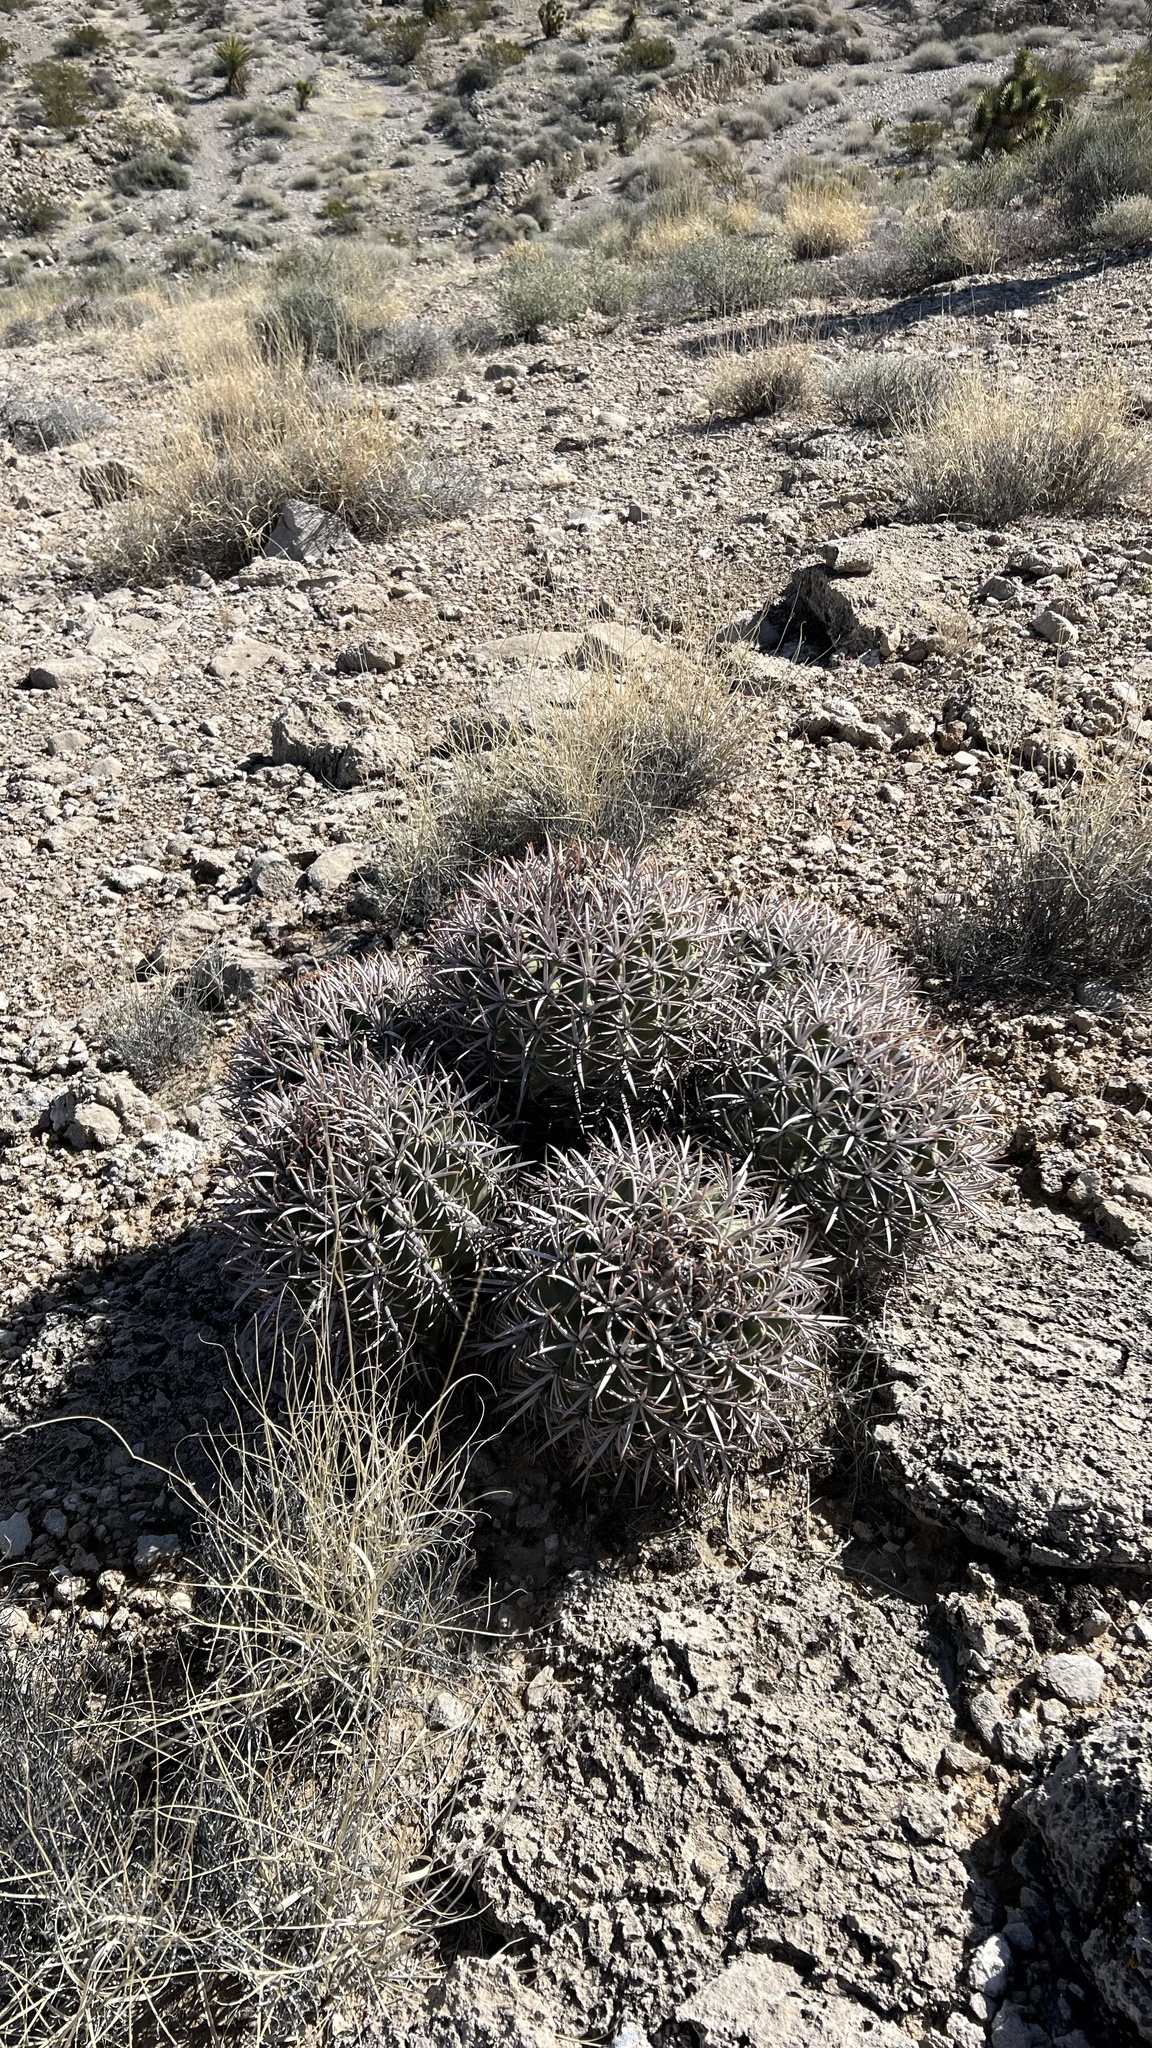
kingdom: Plantae
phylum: Tracheophyta
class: Magnoliopsida
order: Caryophyllales
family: Cactaceae
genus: Echinocactus
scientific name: Echinocactus polycephalus
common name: Cottontop cactus
